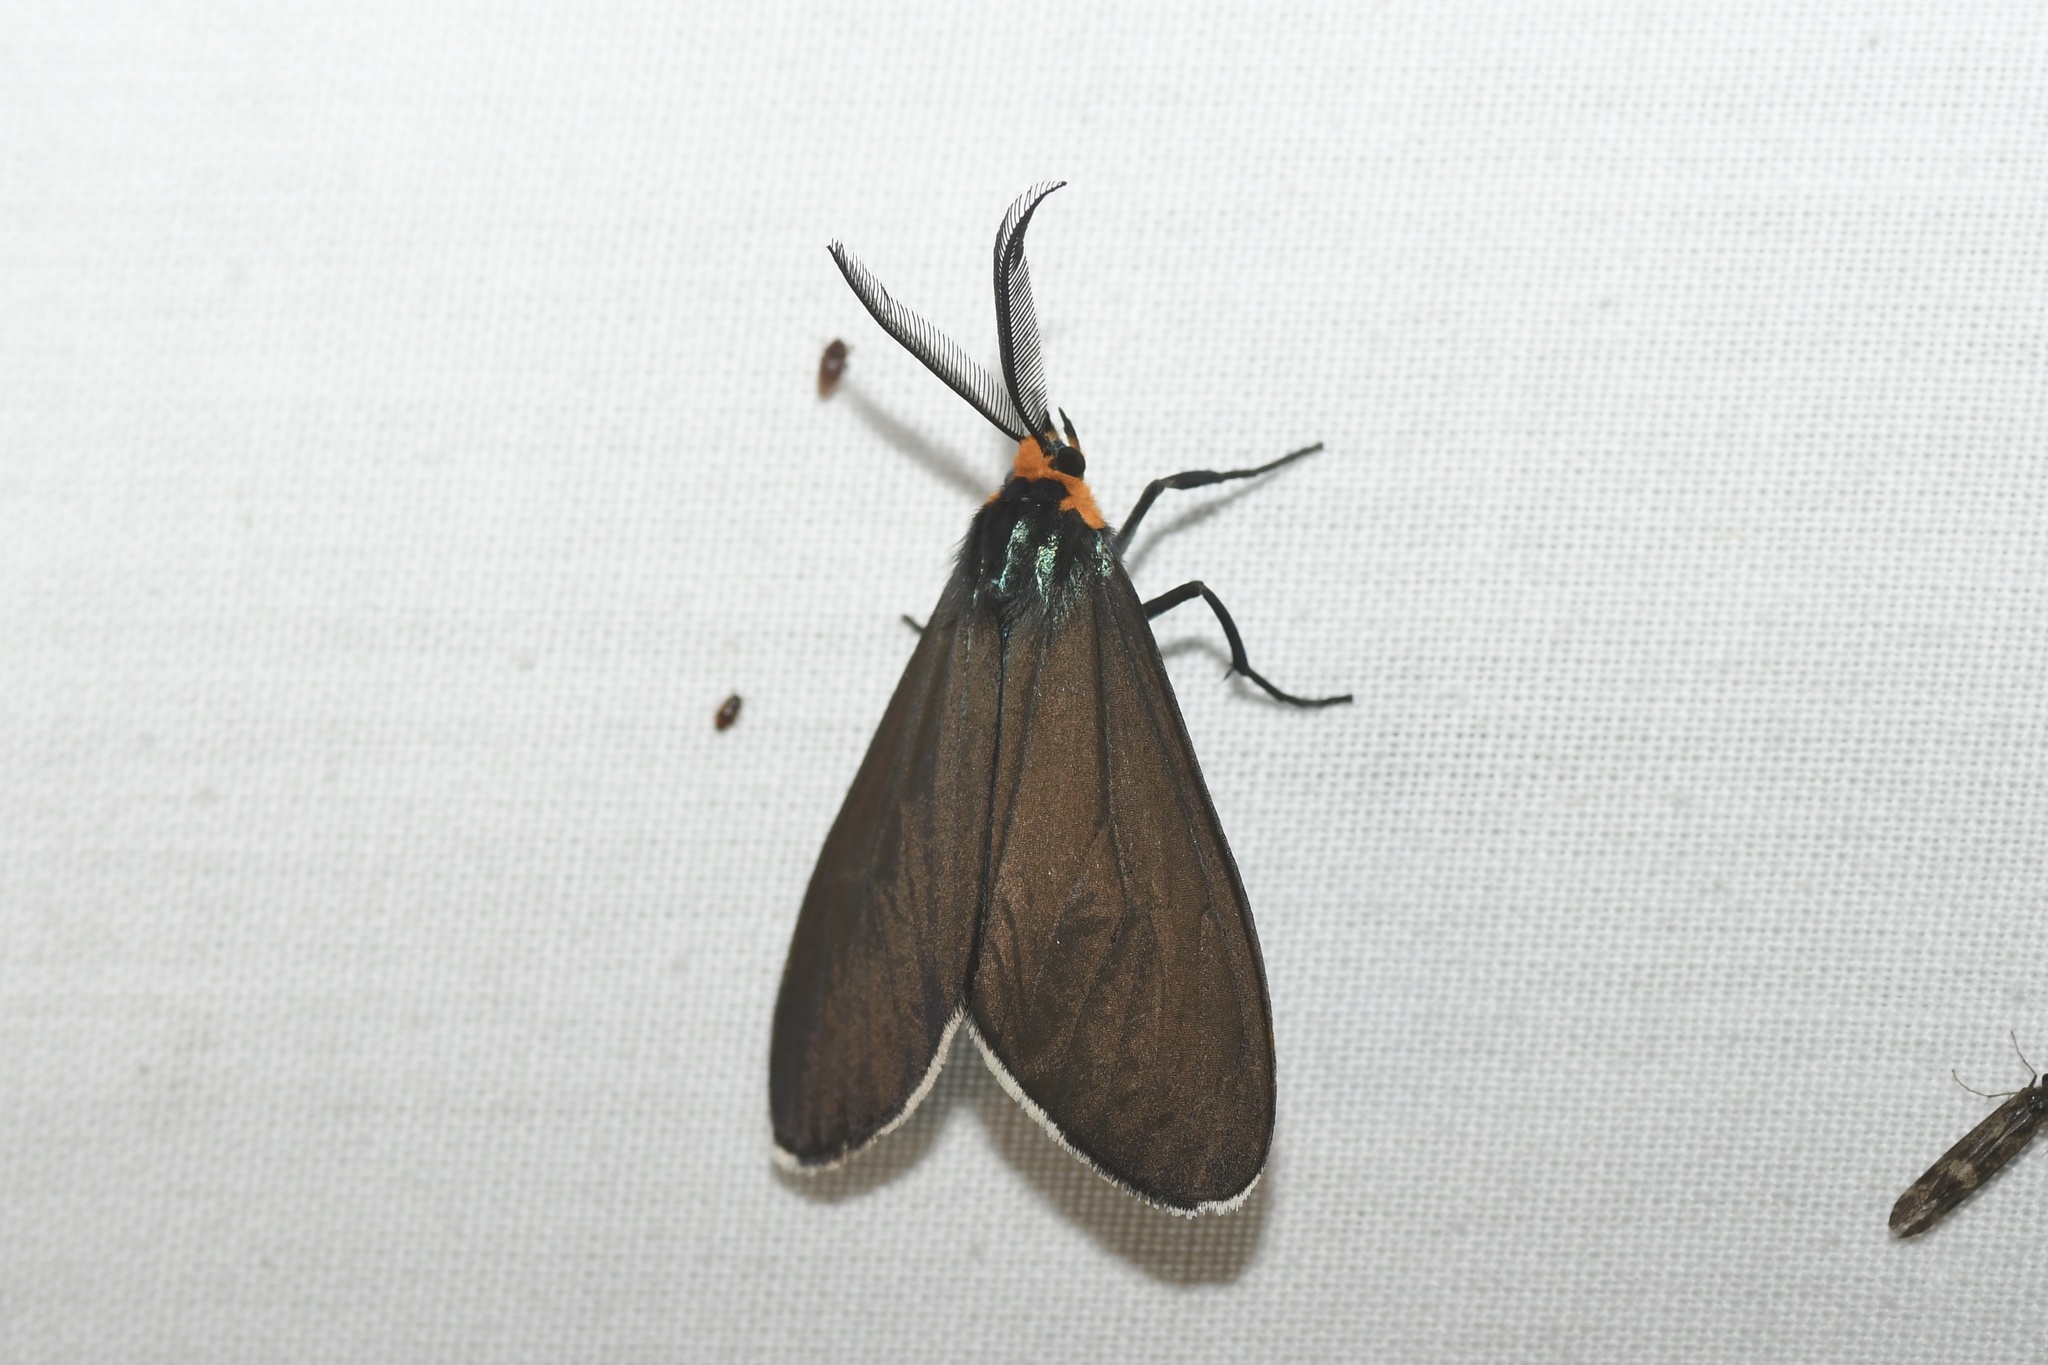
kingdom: Animalia
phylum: Arthropoda
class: Insecta
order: Lepidoptera
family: Erebidae
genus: Ctenucha
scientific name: Ctenucha virginica
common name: Virginia ctenucha moth
